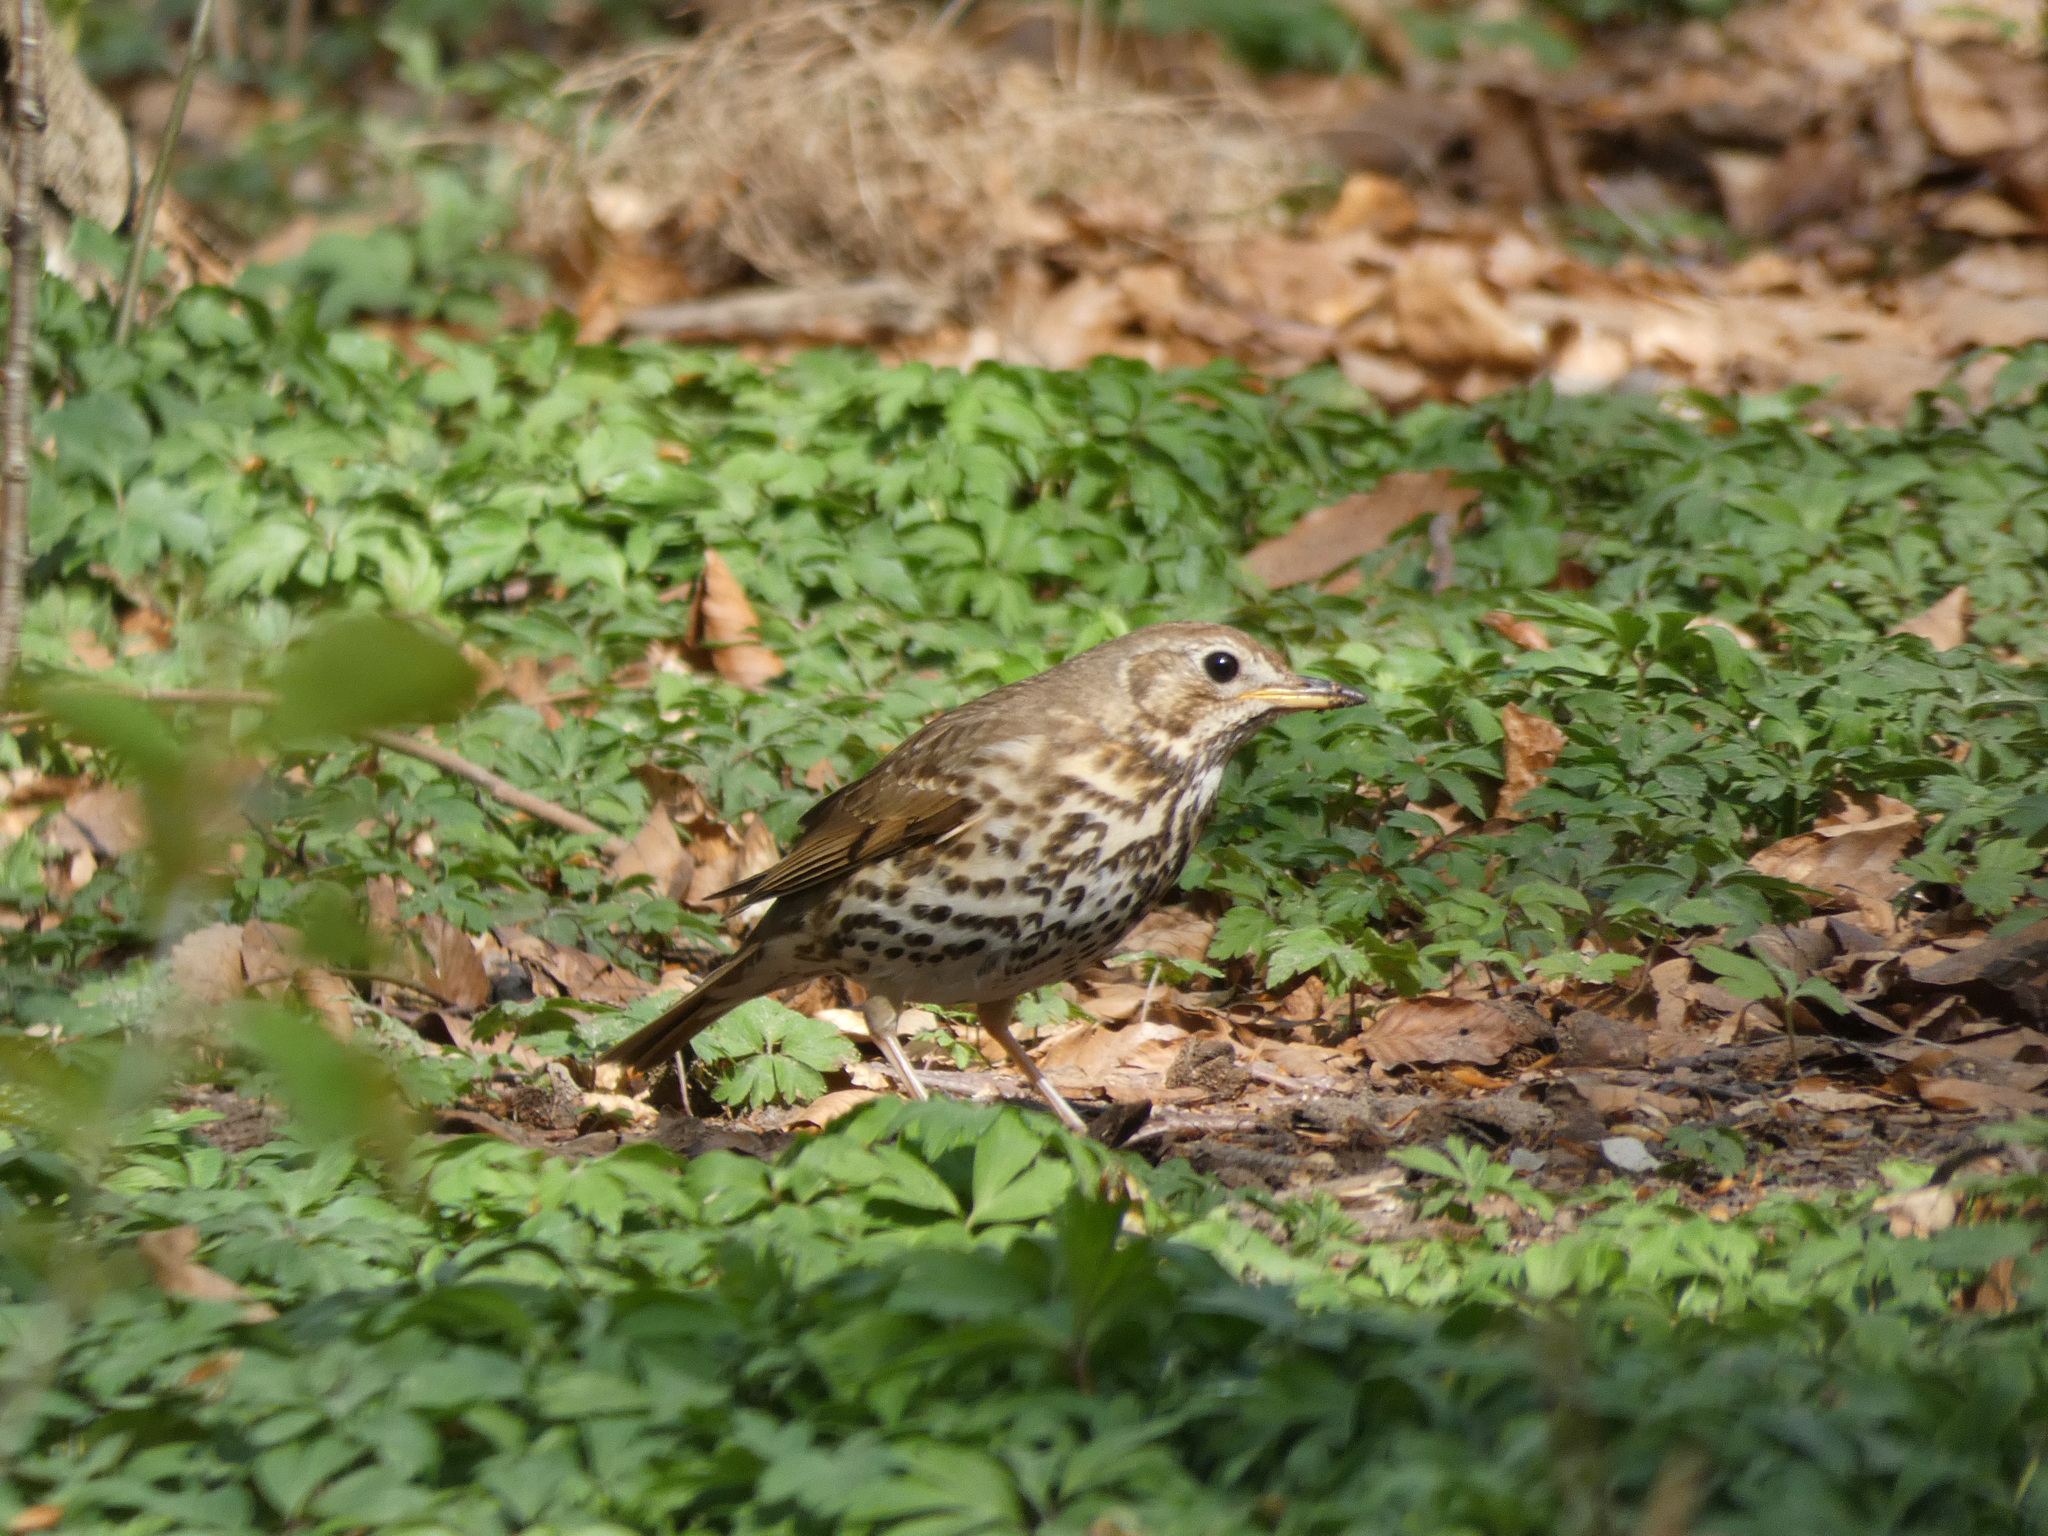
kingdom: Animalia
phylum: Chordata
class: Aves
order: Passeriformes
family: Turdidae
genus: Turdus
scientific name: Turdus philomelos
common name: Song thrush
